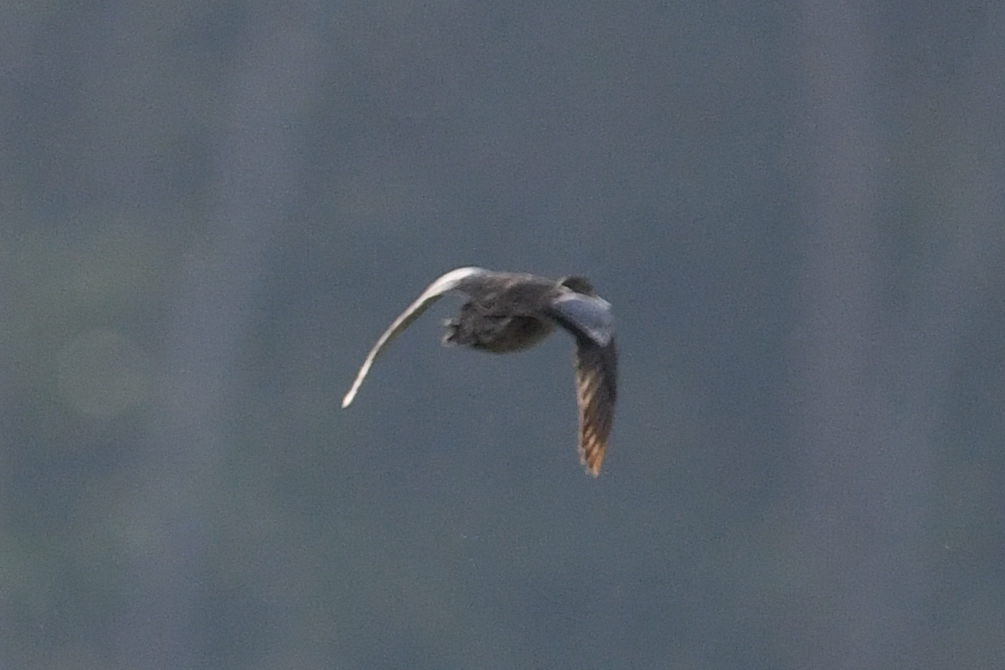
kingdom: Animalia
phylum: Chordata
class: Aves
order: Anseriformes
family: Anatidae
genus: Spatula
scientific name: Spatula discors
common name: Blue-winged teal
